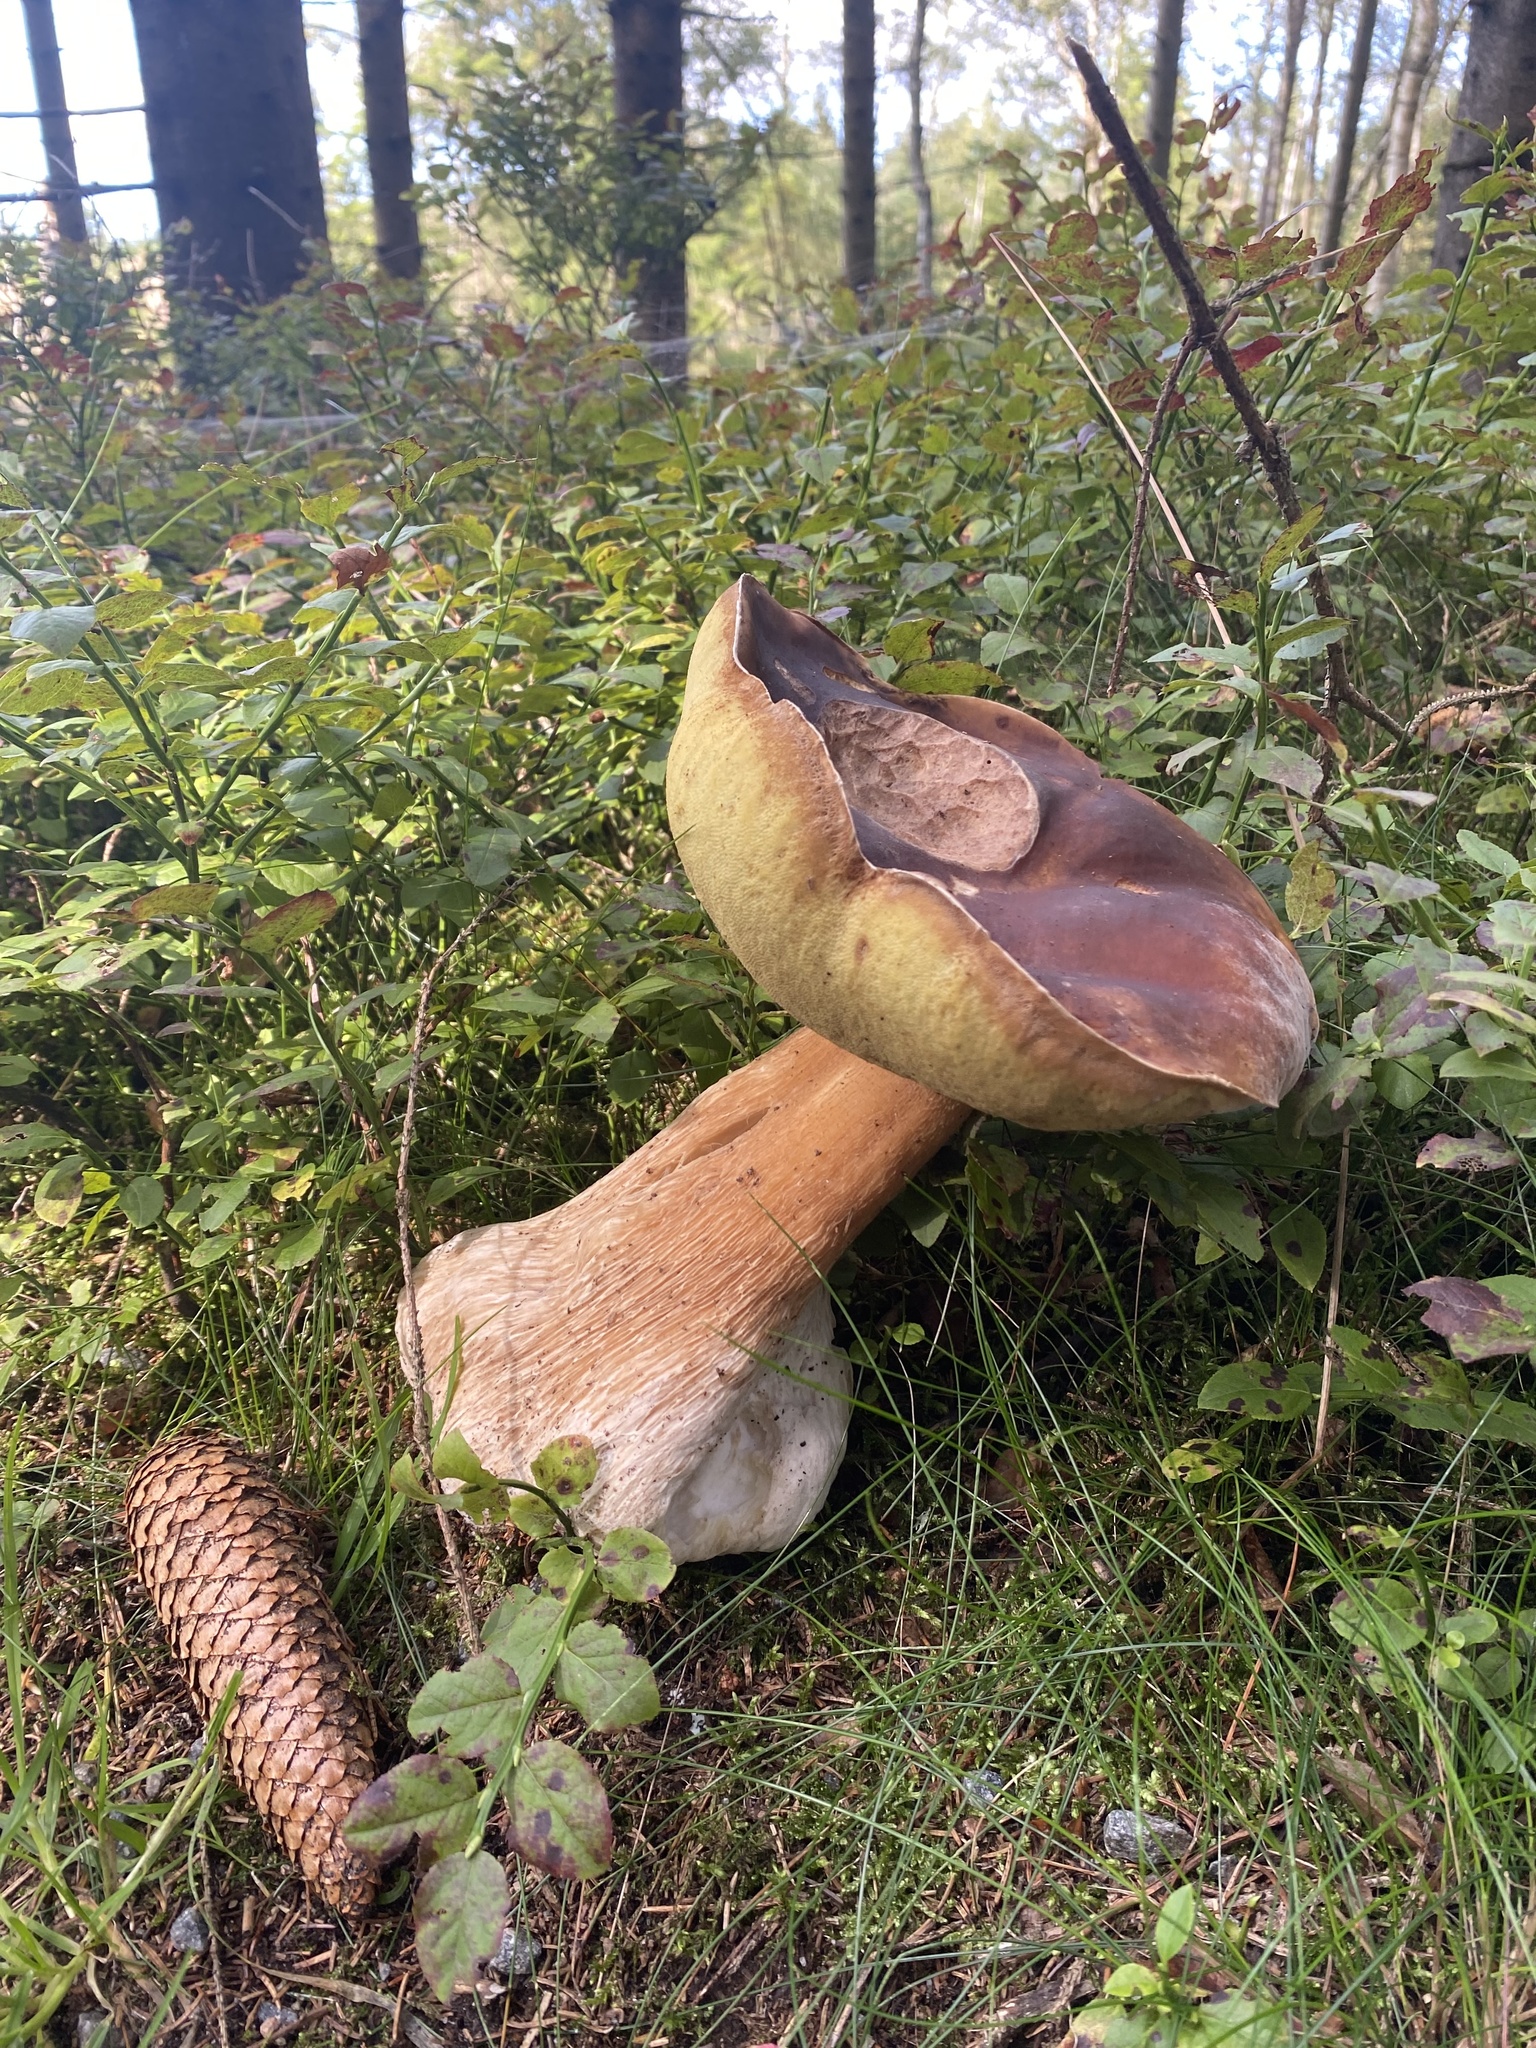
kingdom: Fungi
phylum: Basidiomycota
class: Agaricomycetes
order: Boletales
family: Boletaceae
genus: Boletus
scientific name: Boletus pinophilus
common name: Pine bolete
